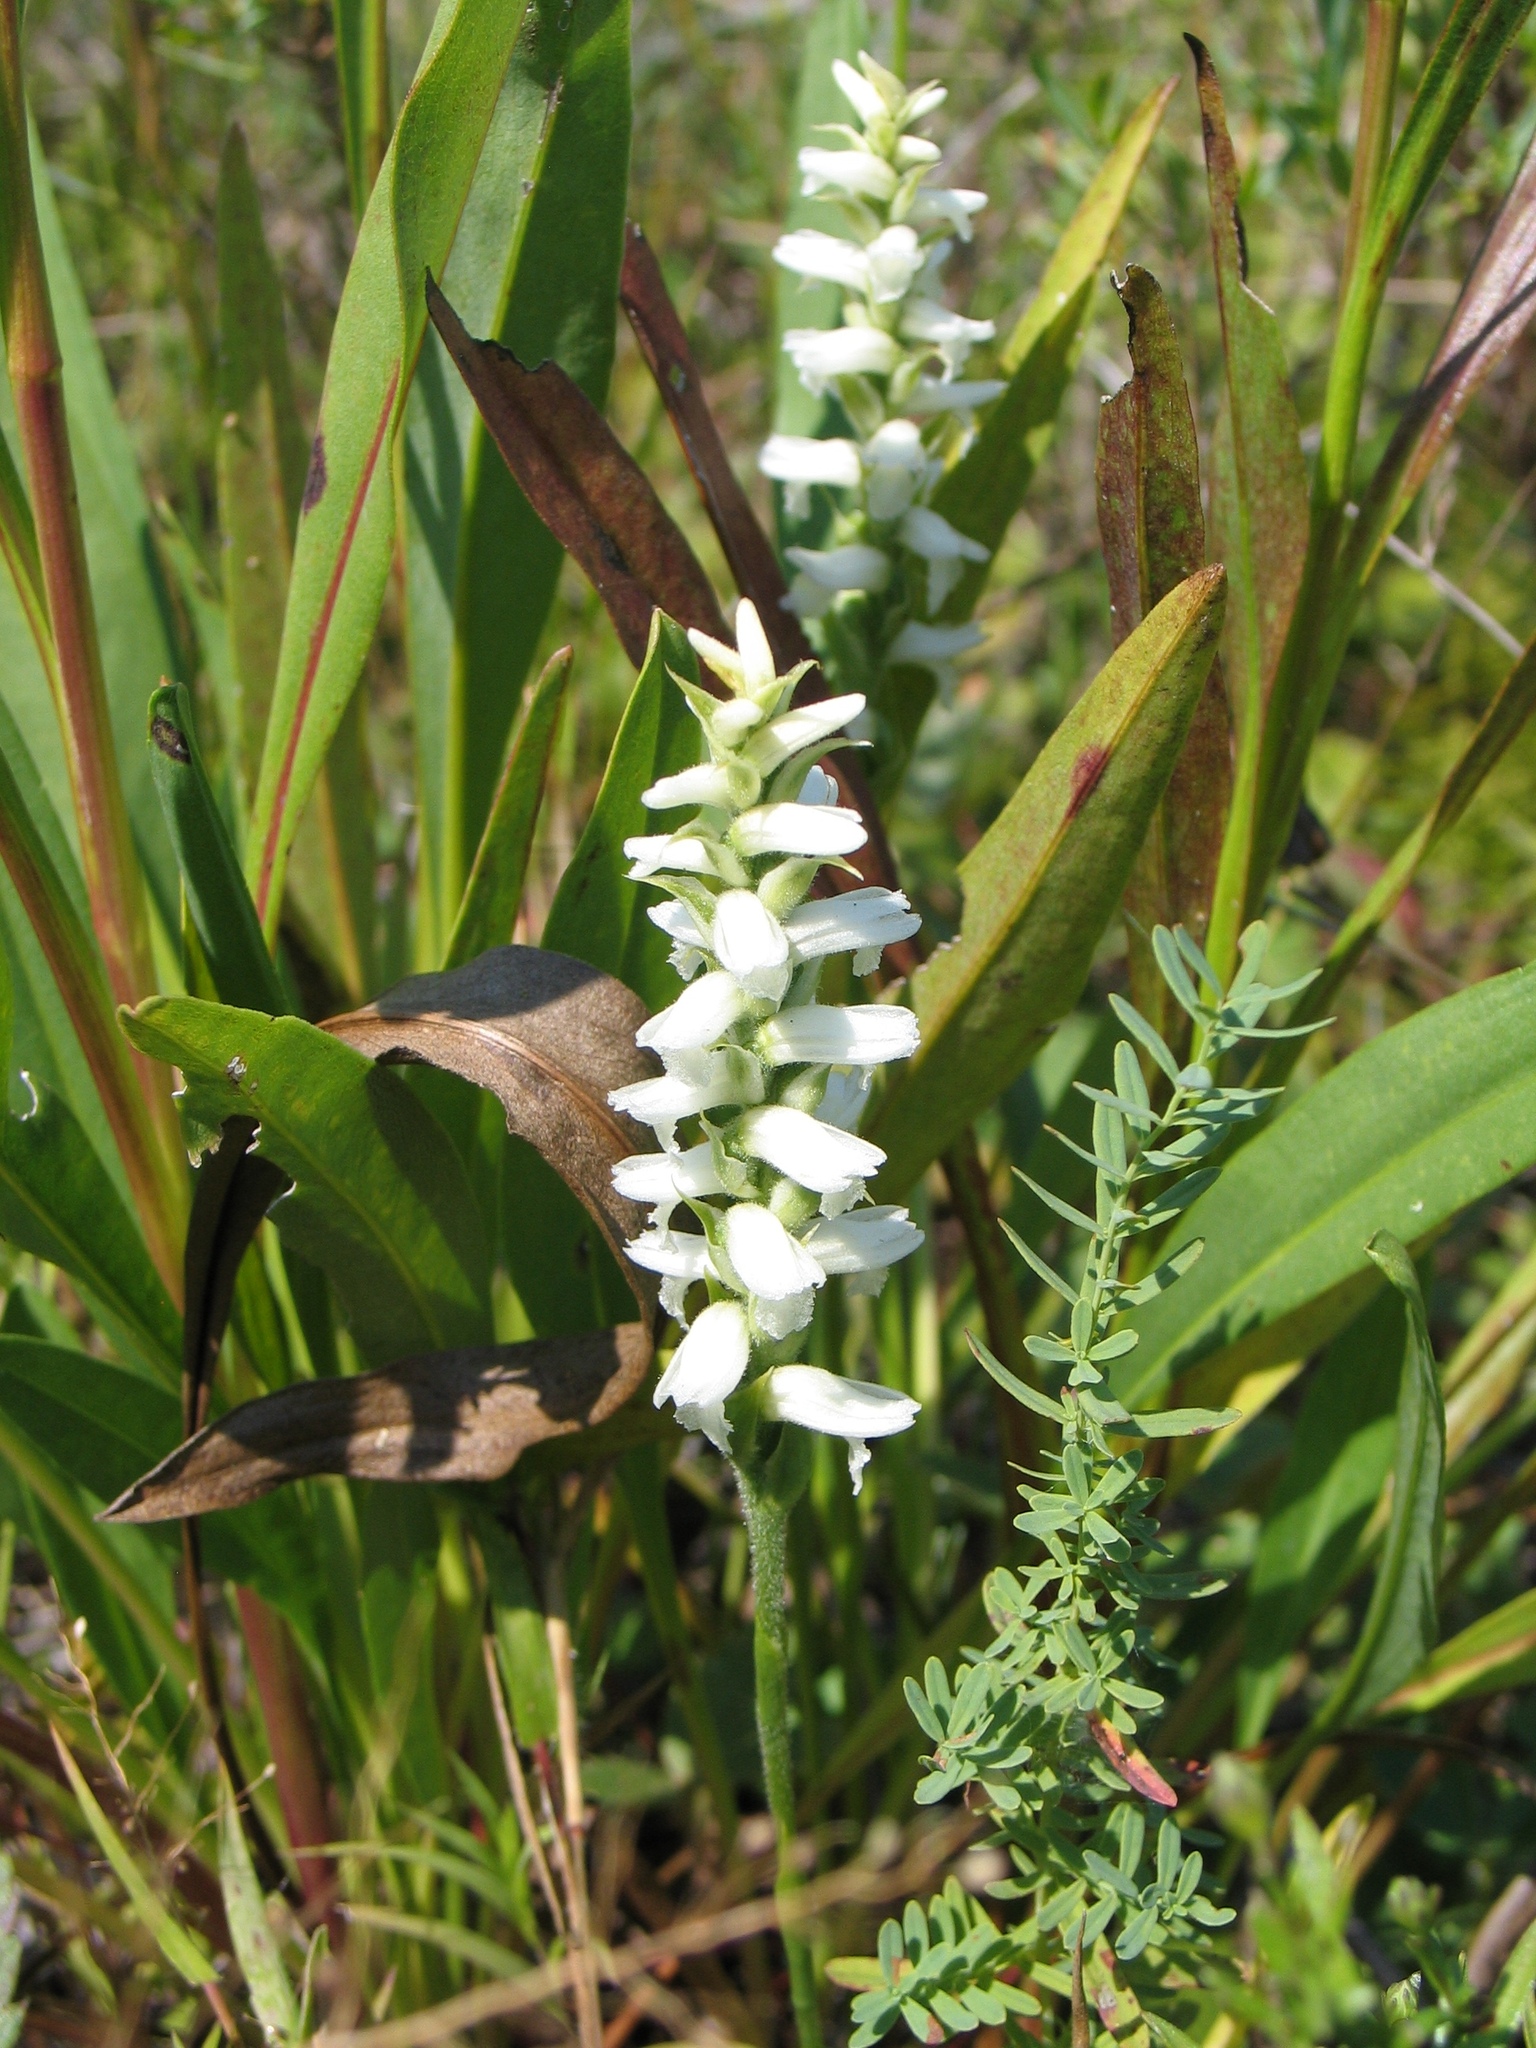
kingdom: Plantae
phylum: Tracheophyta
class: Liliopsida
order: Asparagales
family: Orchidaceae
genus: Spiranthes
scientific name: Spiranthes incurva
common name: Sphinx ladies'-tresses
